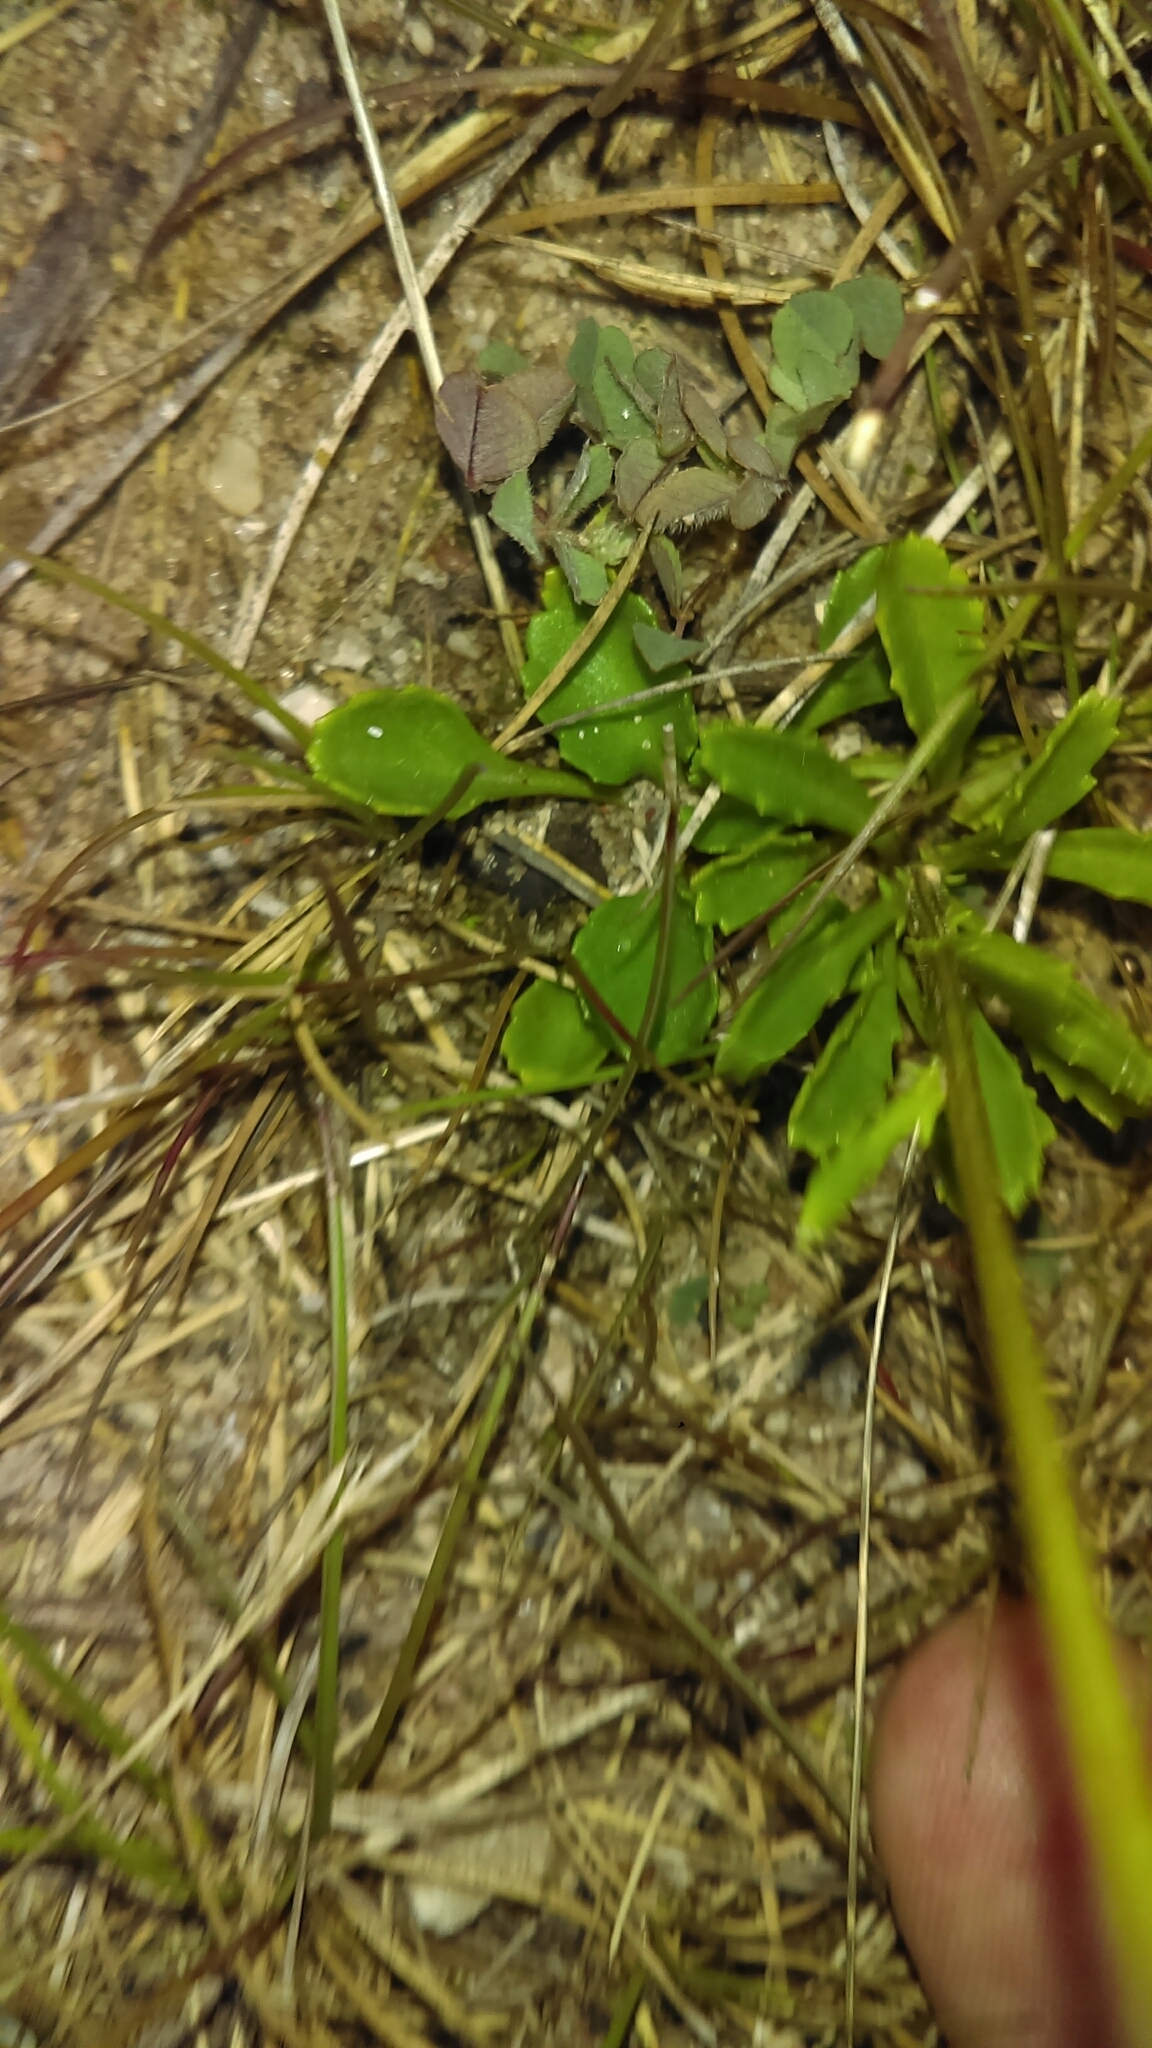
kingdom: Plantae
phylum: Tracheophyta
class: Magnoliopsida
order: Asterales
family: Asteraceae
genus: Leucanthemum
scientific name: Leucanthemum vulgare
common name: Oxeye daisy
